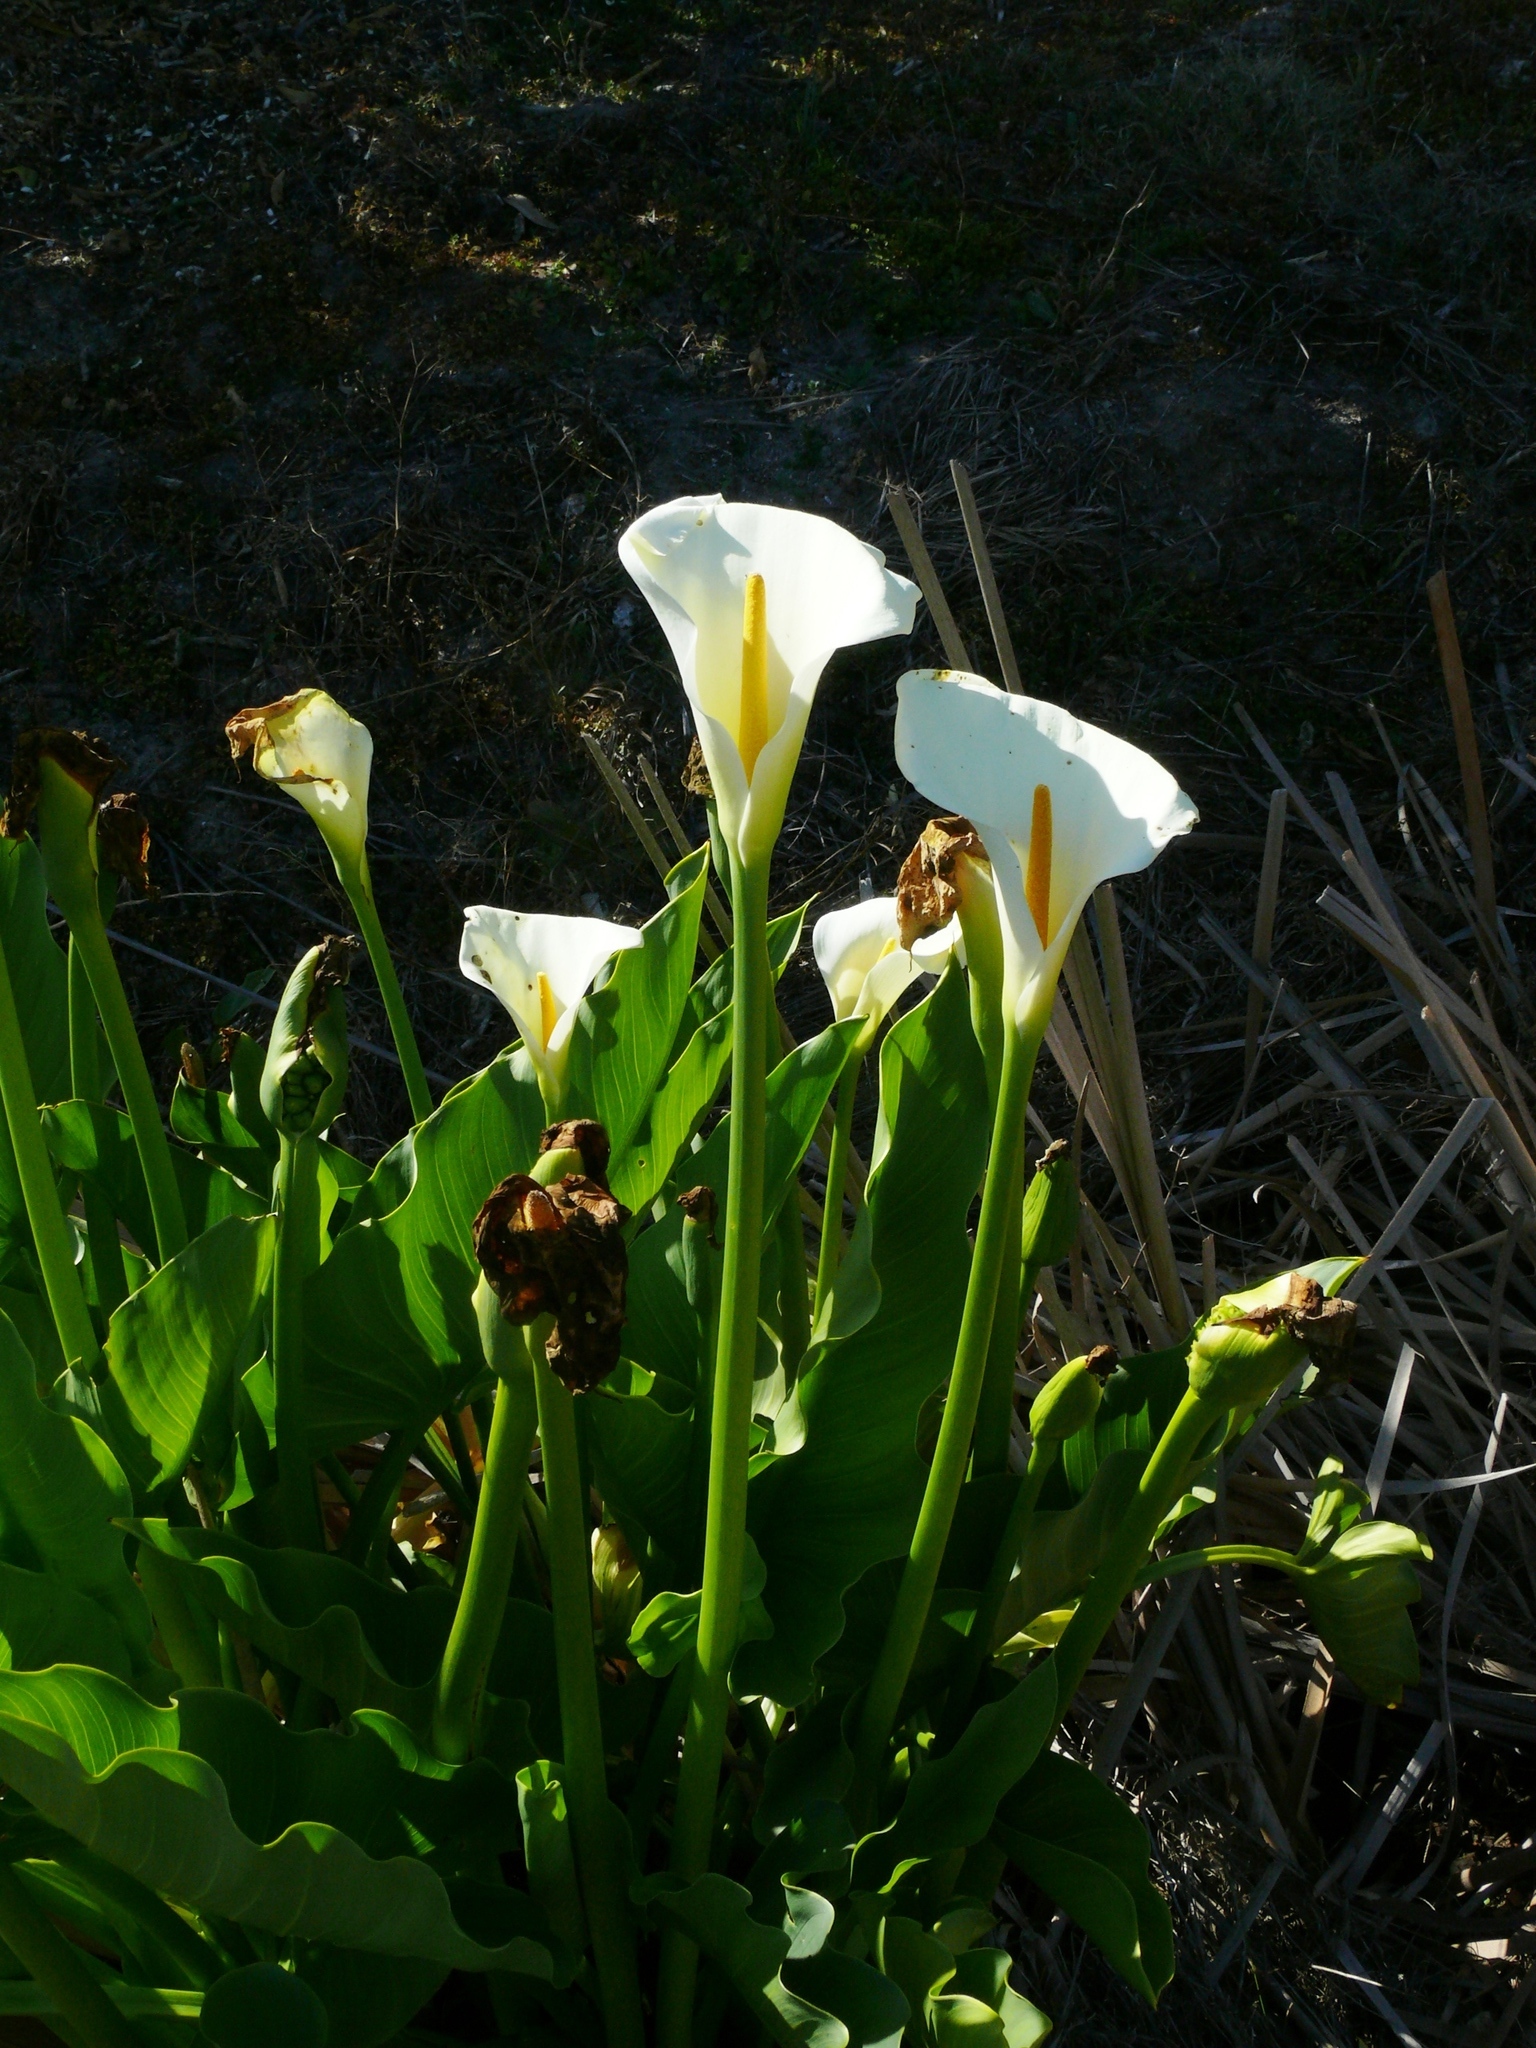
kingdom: Plantae
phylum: Tracheophyta
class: Liliopsida
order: Alismatales
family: Araceae
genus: Zantedeschia
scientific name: Zantedeschia aethiopica
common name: Altar-lily
